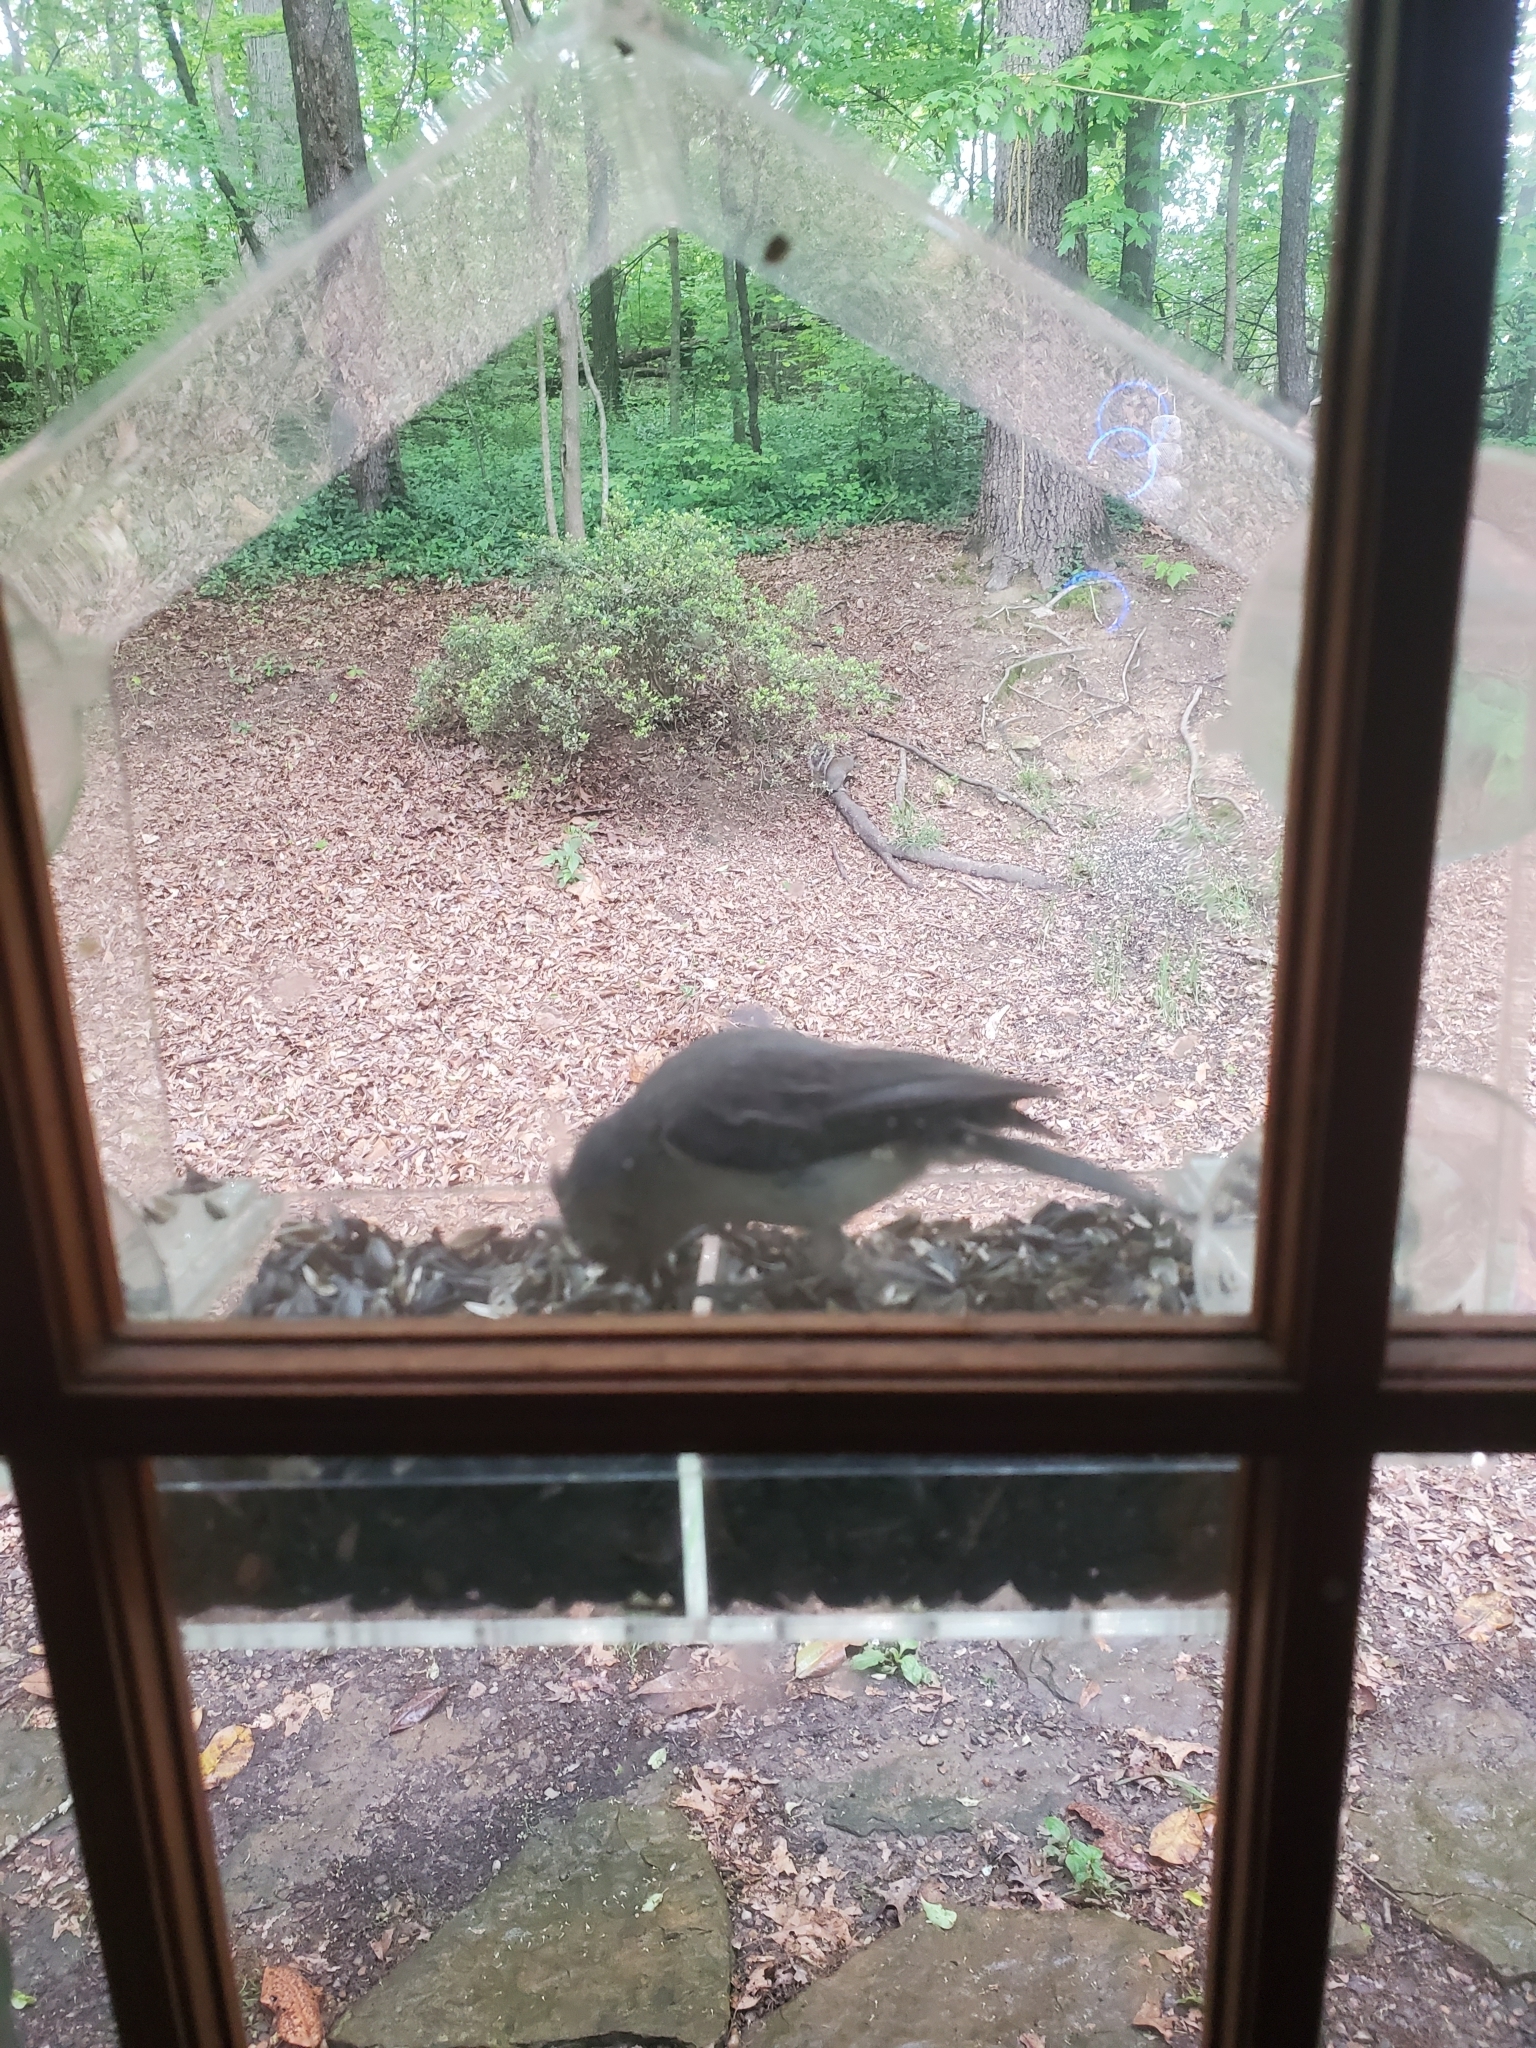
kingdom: Animalia
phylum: Chordata
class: Aves
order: Passeriformes
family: Paridae
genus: Baeolophus
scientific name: Baeolophus bicolor
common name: Tufted titmouse
